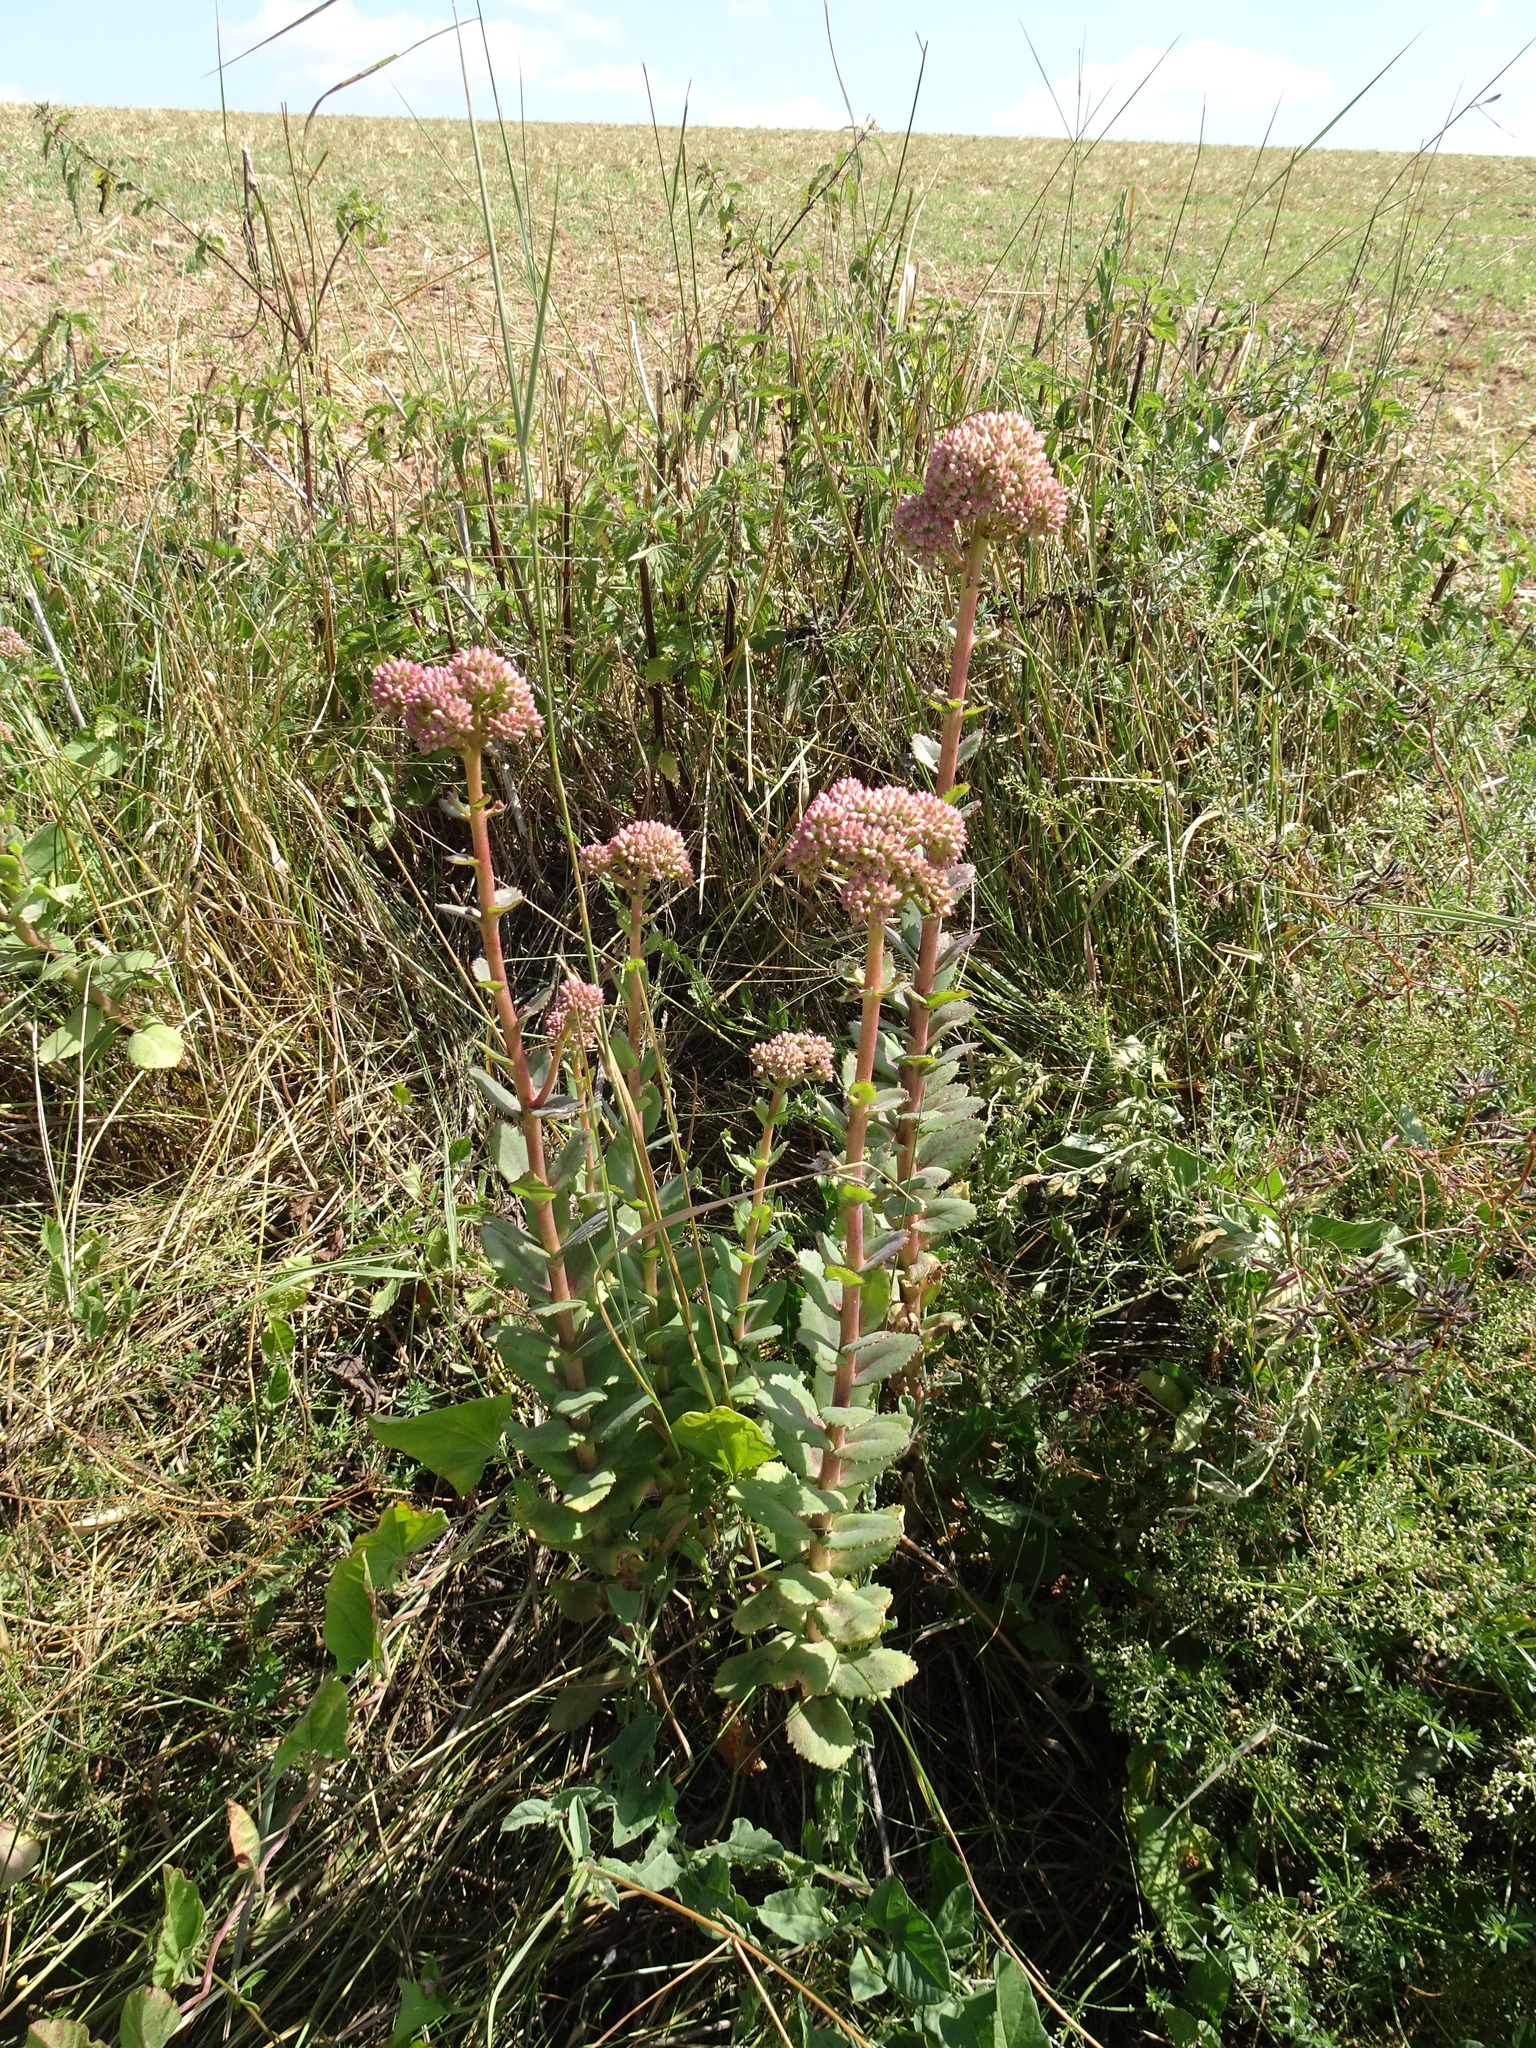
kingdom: Plantae
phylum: Tracheophyta
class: Magnoliopsida
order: Saxifragales
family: Crassulaceae
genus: Hylotelephium
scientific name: Hylotelephium telephium
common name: Live-forever
